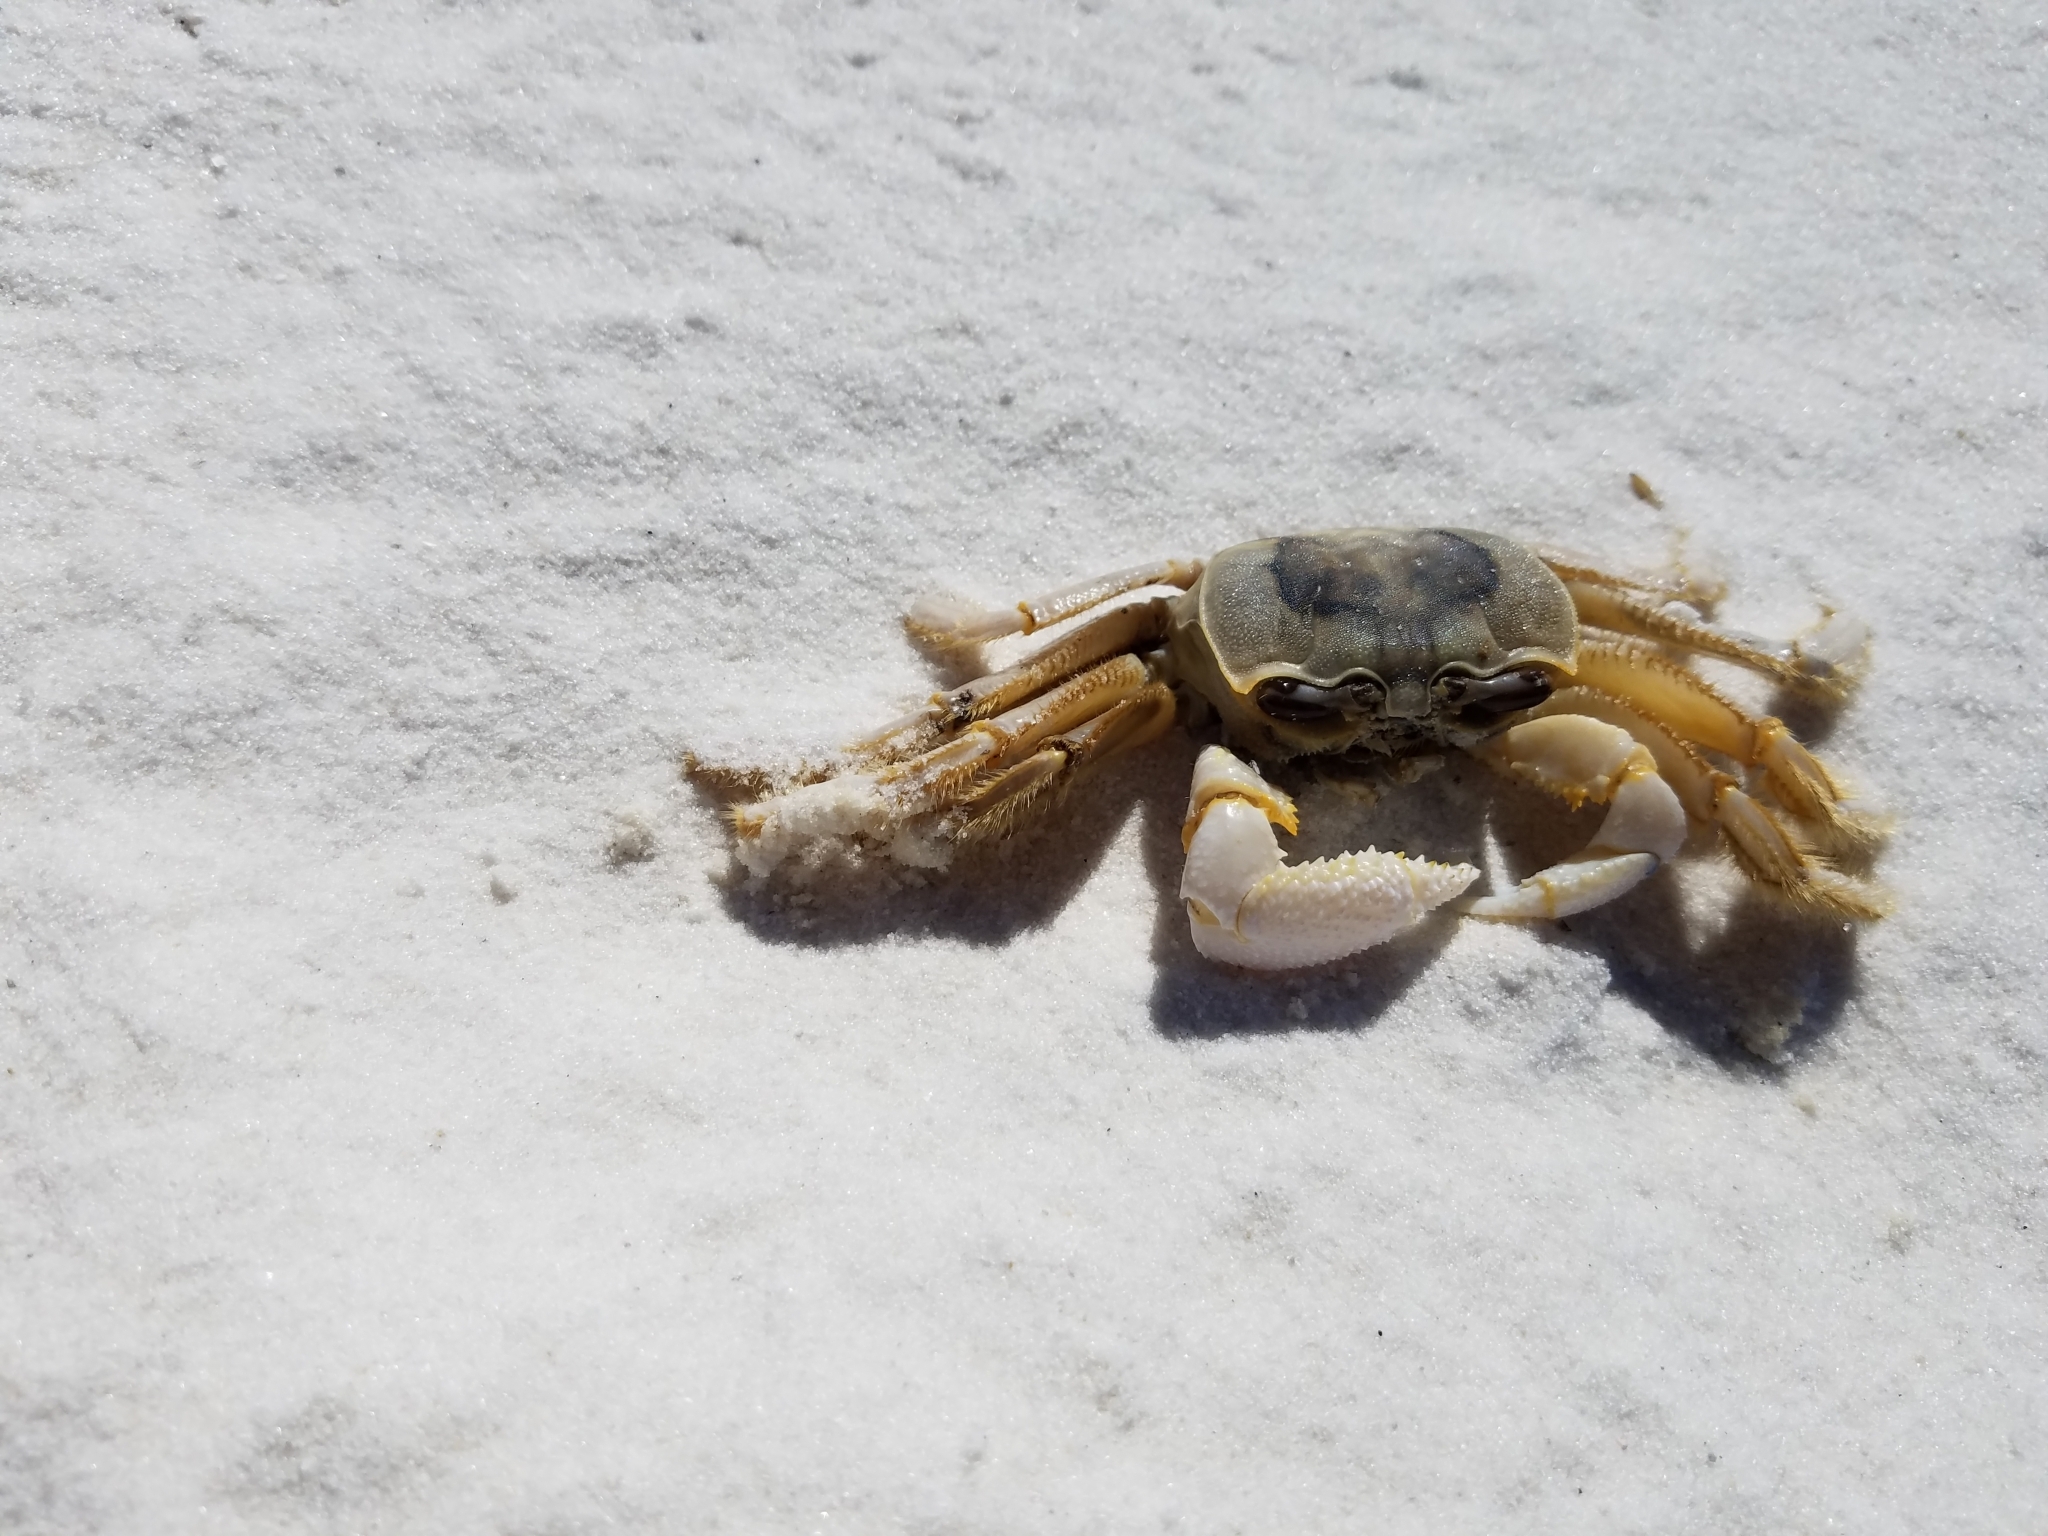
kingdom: Animalia
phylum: Arthropoda
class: Malacostraca
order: Decapoda
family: Ocypodidae
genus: Ocypode
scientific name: Ocypode quadrata
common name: Ghost crab
